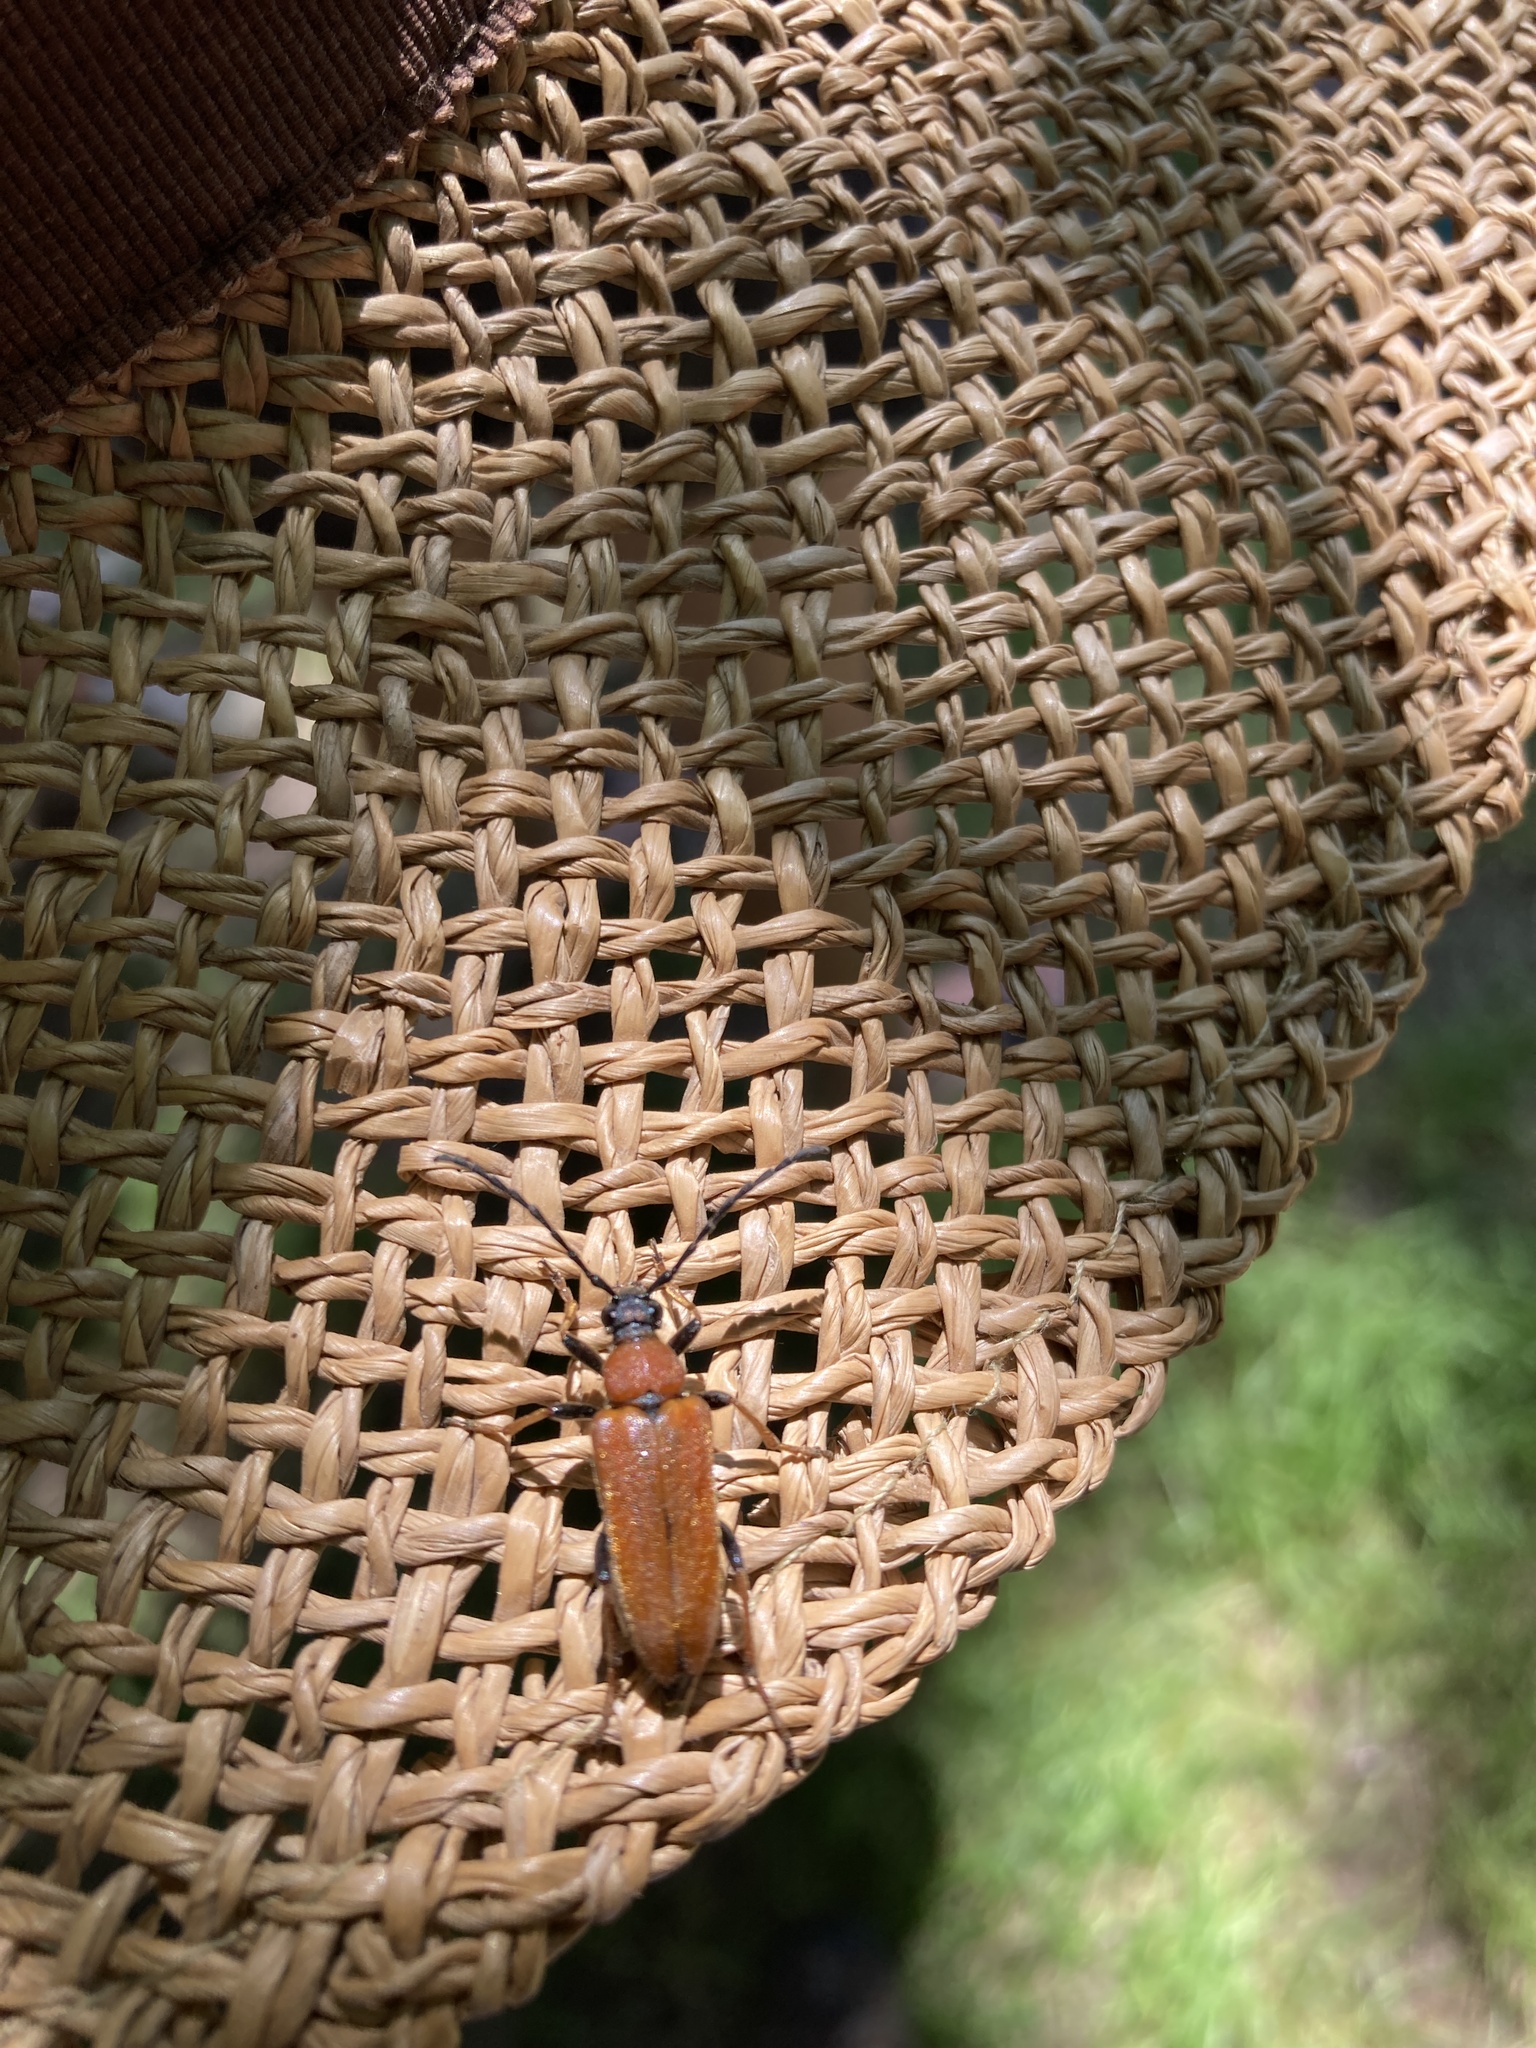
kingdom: Animalia
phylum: Arthropoda
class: Insecta
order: Coleoptera
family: Cerambycidae
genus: Stictoleptura
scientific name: Stictoleptura rubra
